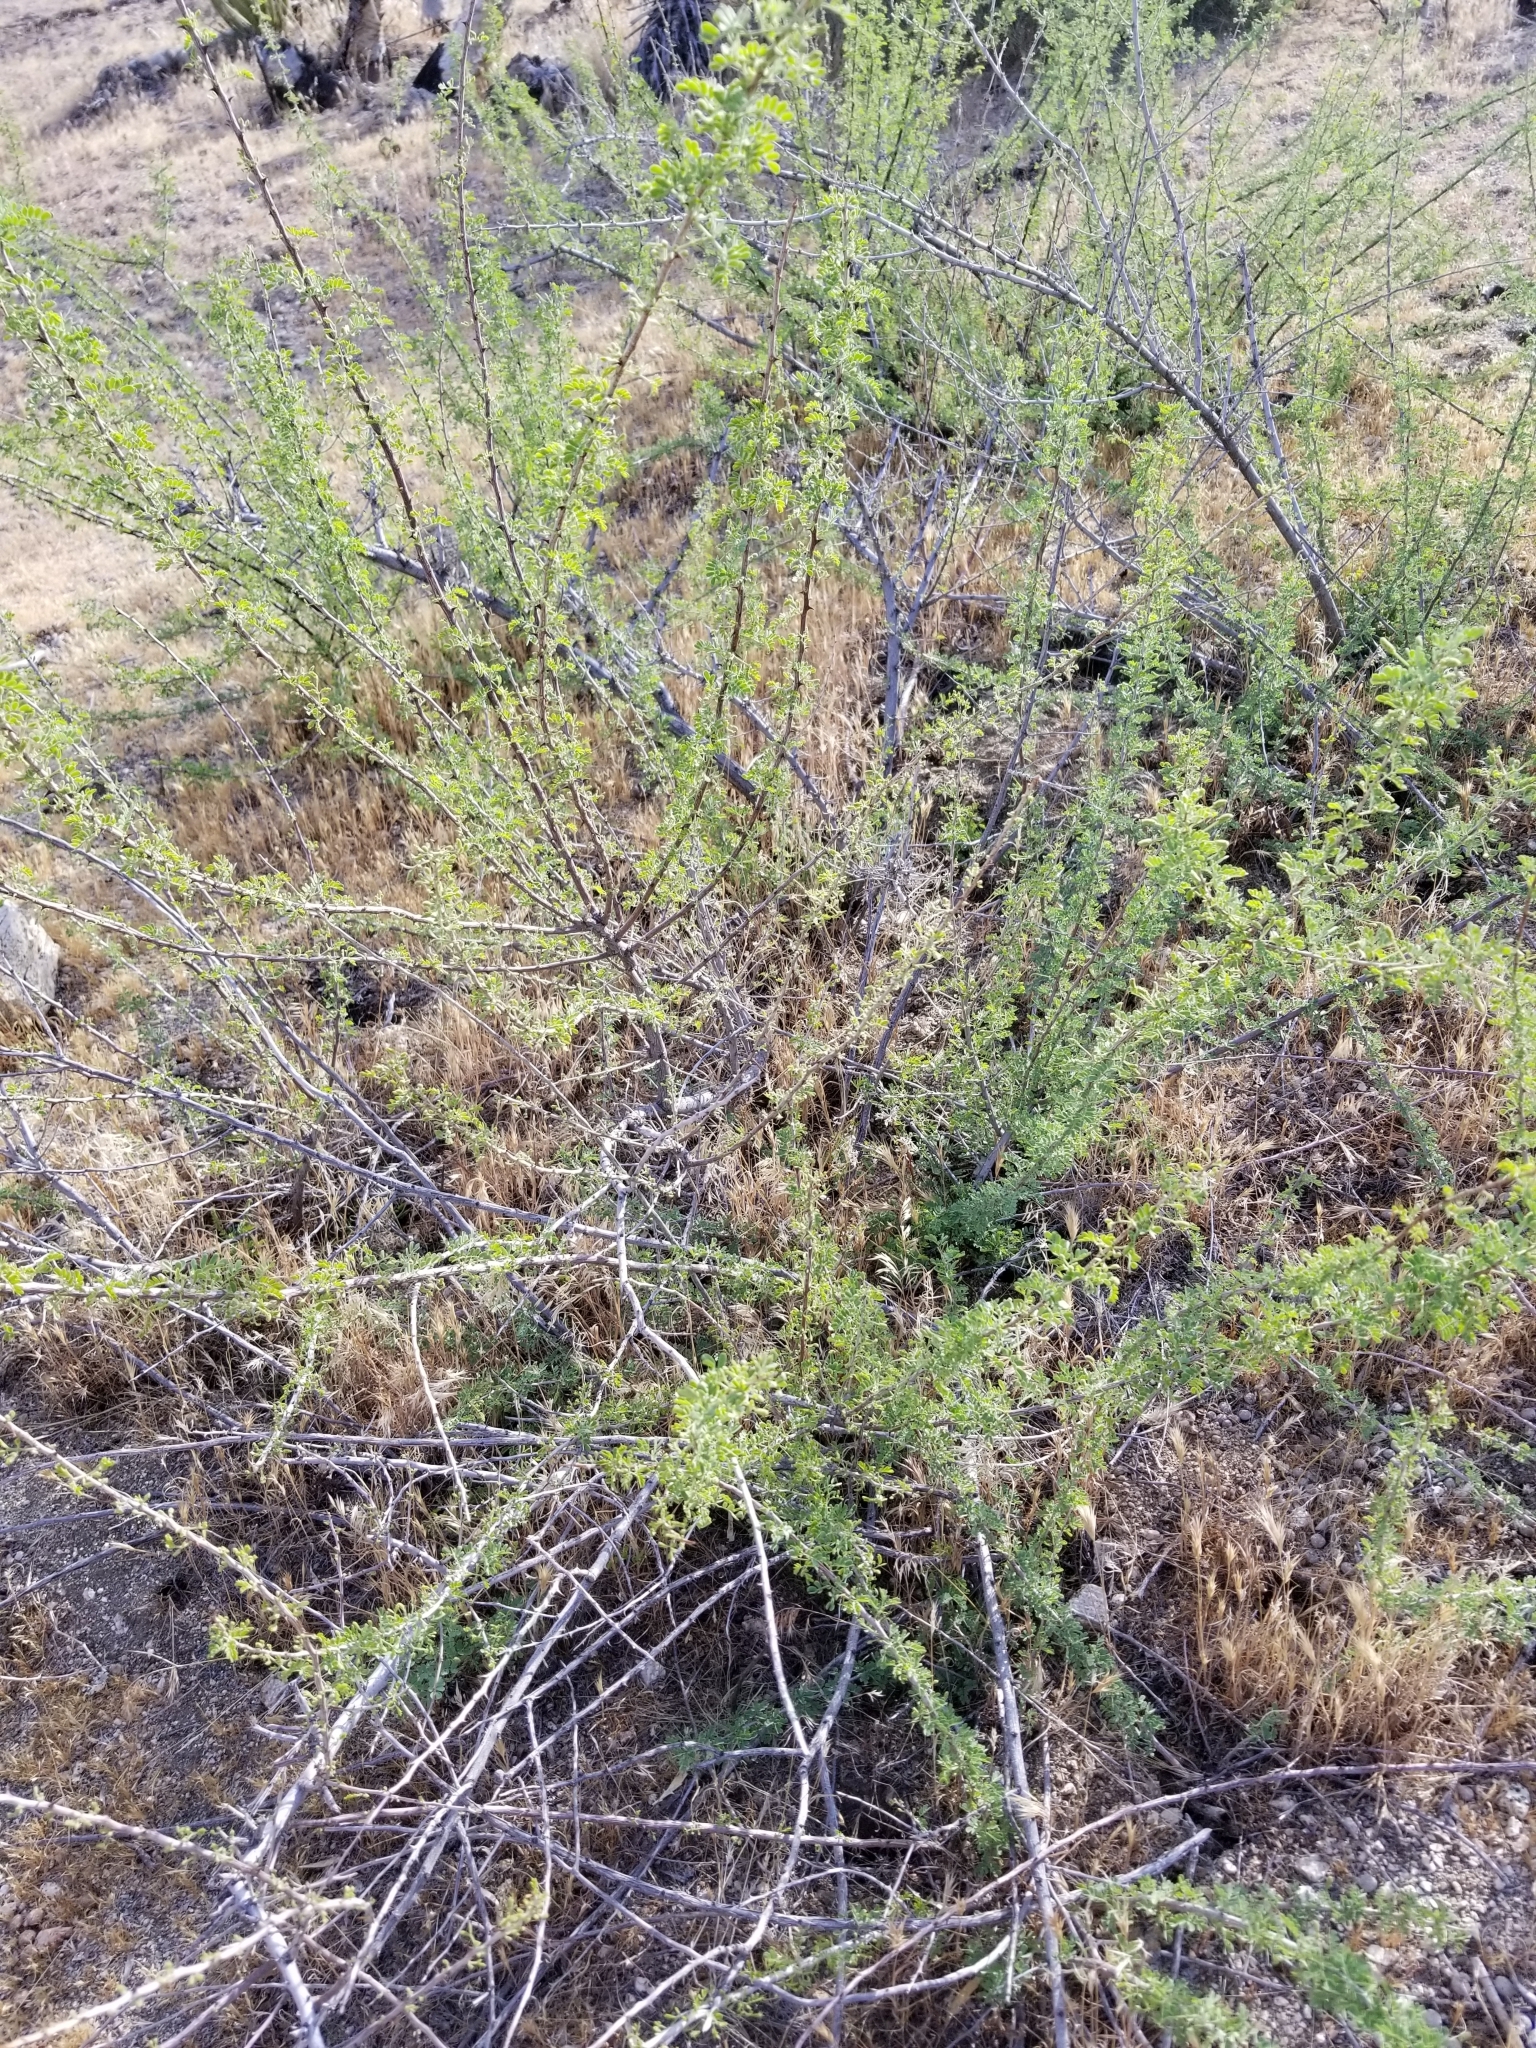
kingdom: Plantae
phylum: Tracheophyta
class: Magnoliopsida
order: Fabales
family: Fabaceae
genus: Senegalia
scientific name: Senegalia greggii
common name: Texas-mimosa
